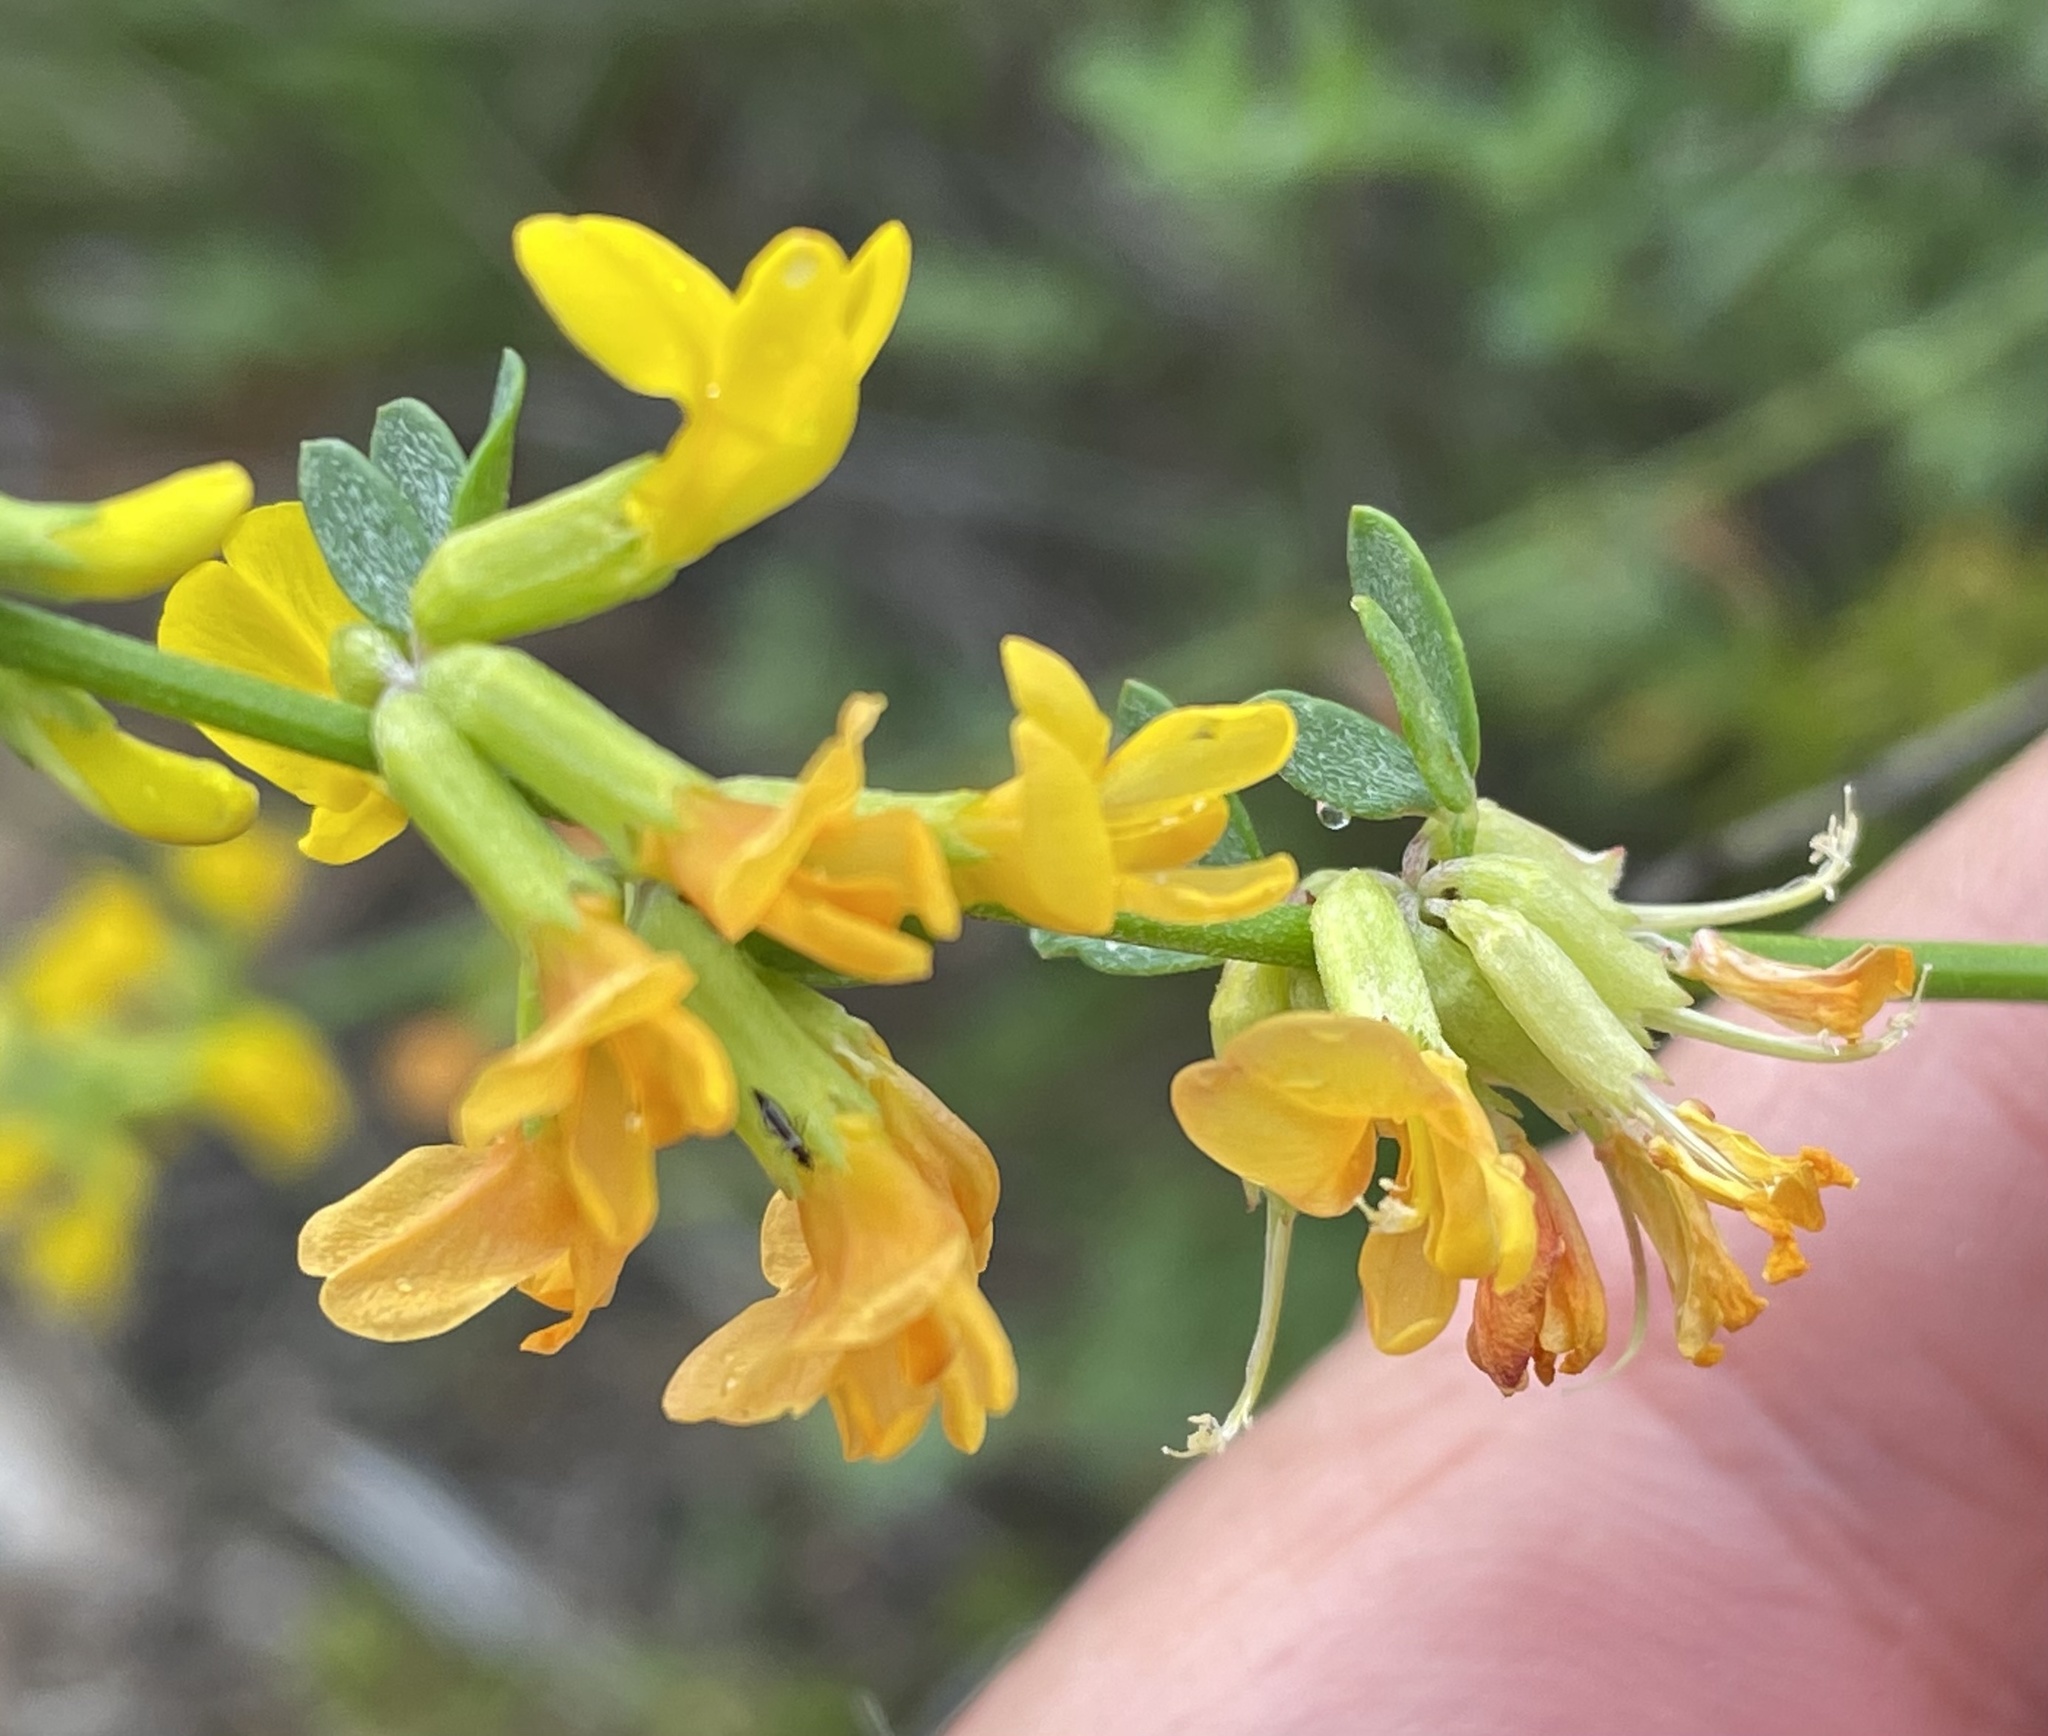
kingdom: Plantae
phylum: Tracheophyta
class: Magnoliopsida
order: Fabales
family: Fabaceae
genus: Acmispon
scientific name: Acmispon glaber
